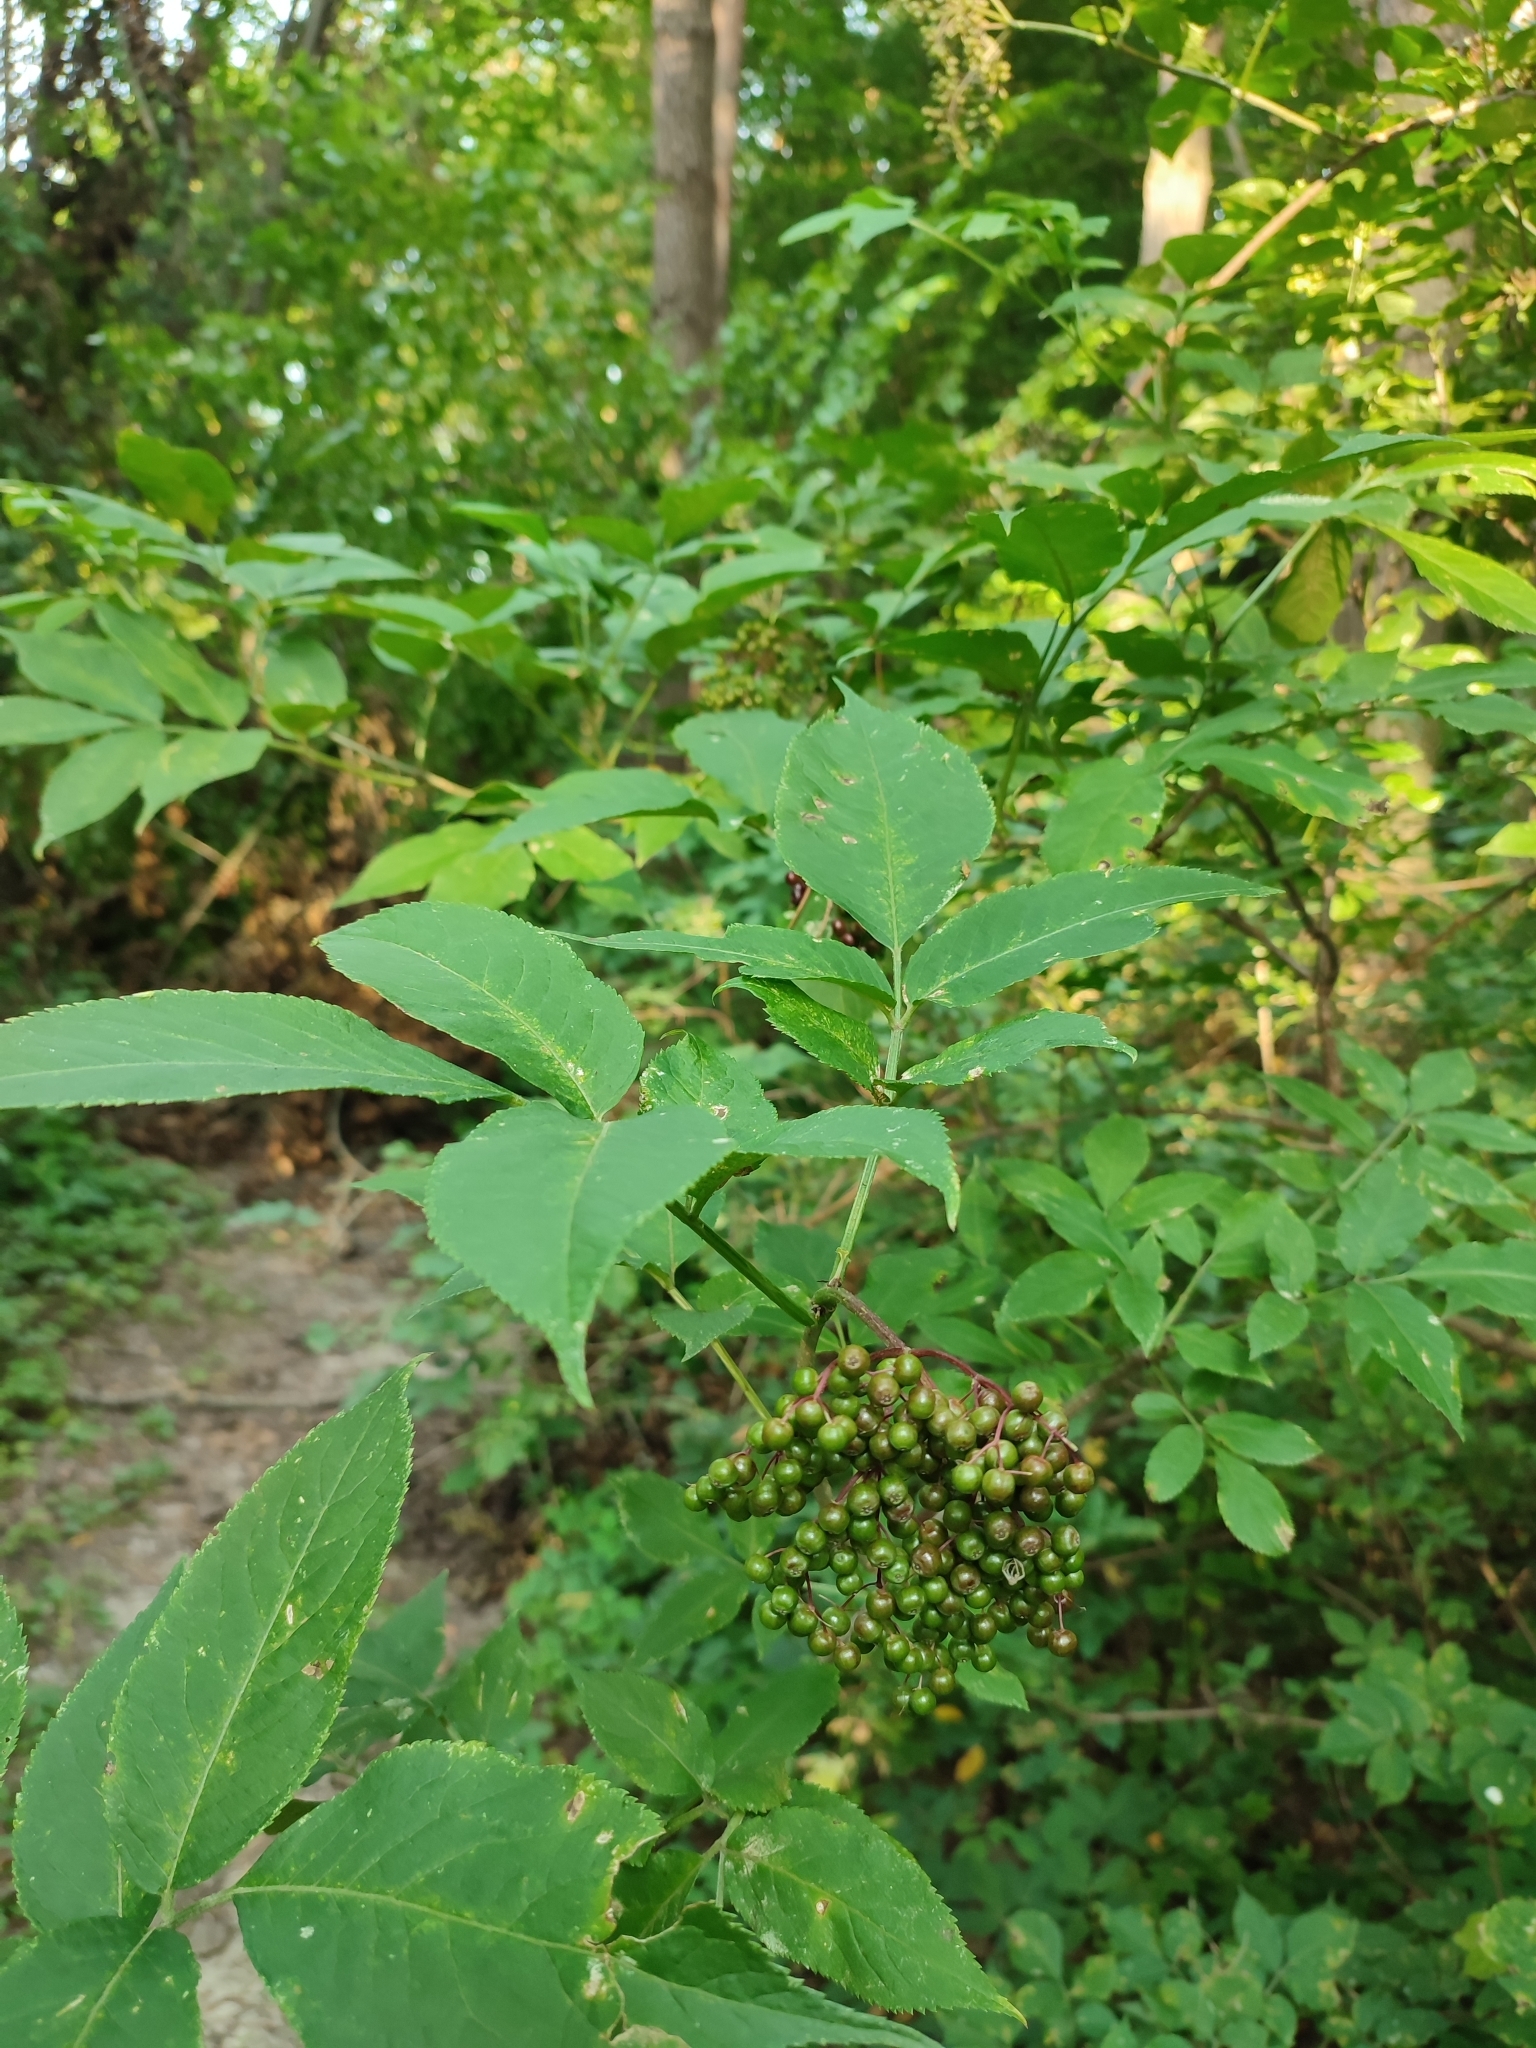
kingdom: Plantae
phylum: Tracheophyta
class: Magnoliopsida
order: Dipsacales
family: Viburnaceae
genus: Sambucus
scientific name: Sambucus nigra
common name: Elder
